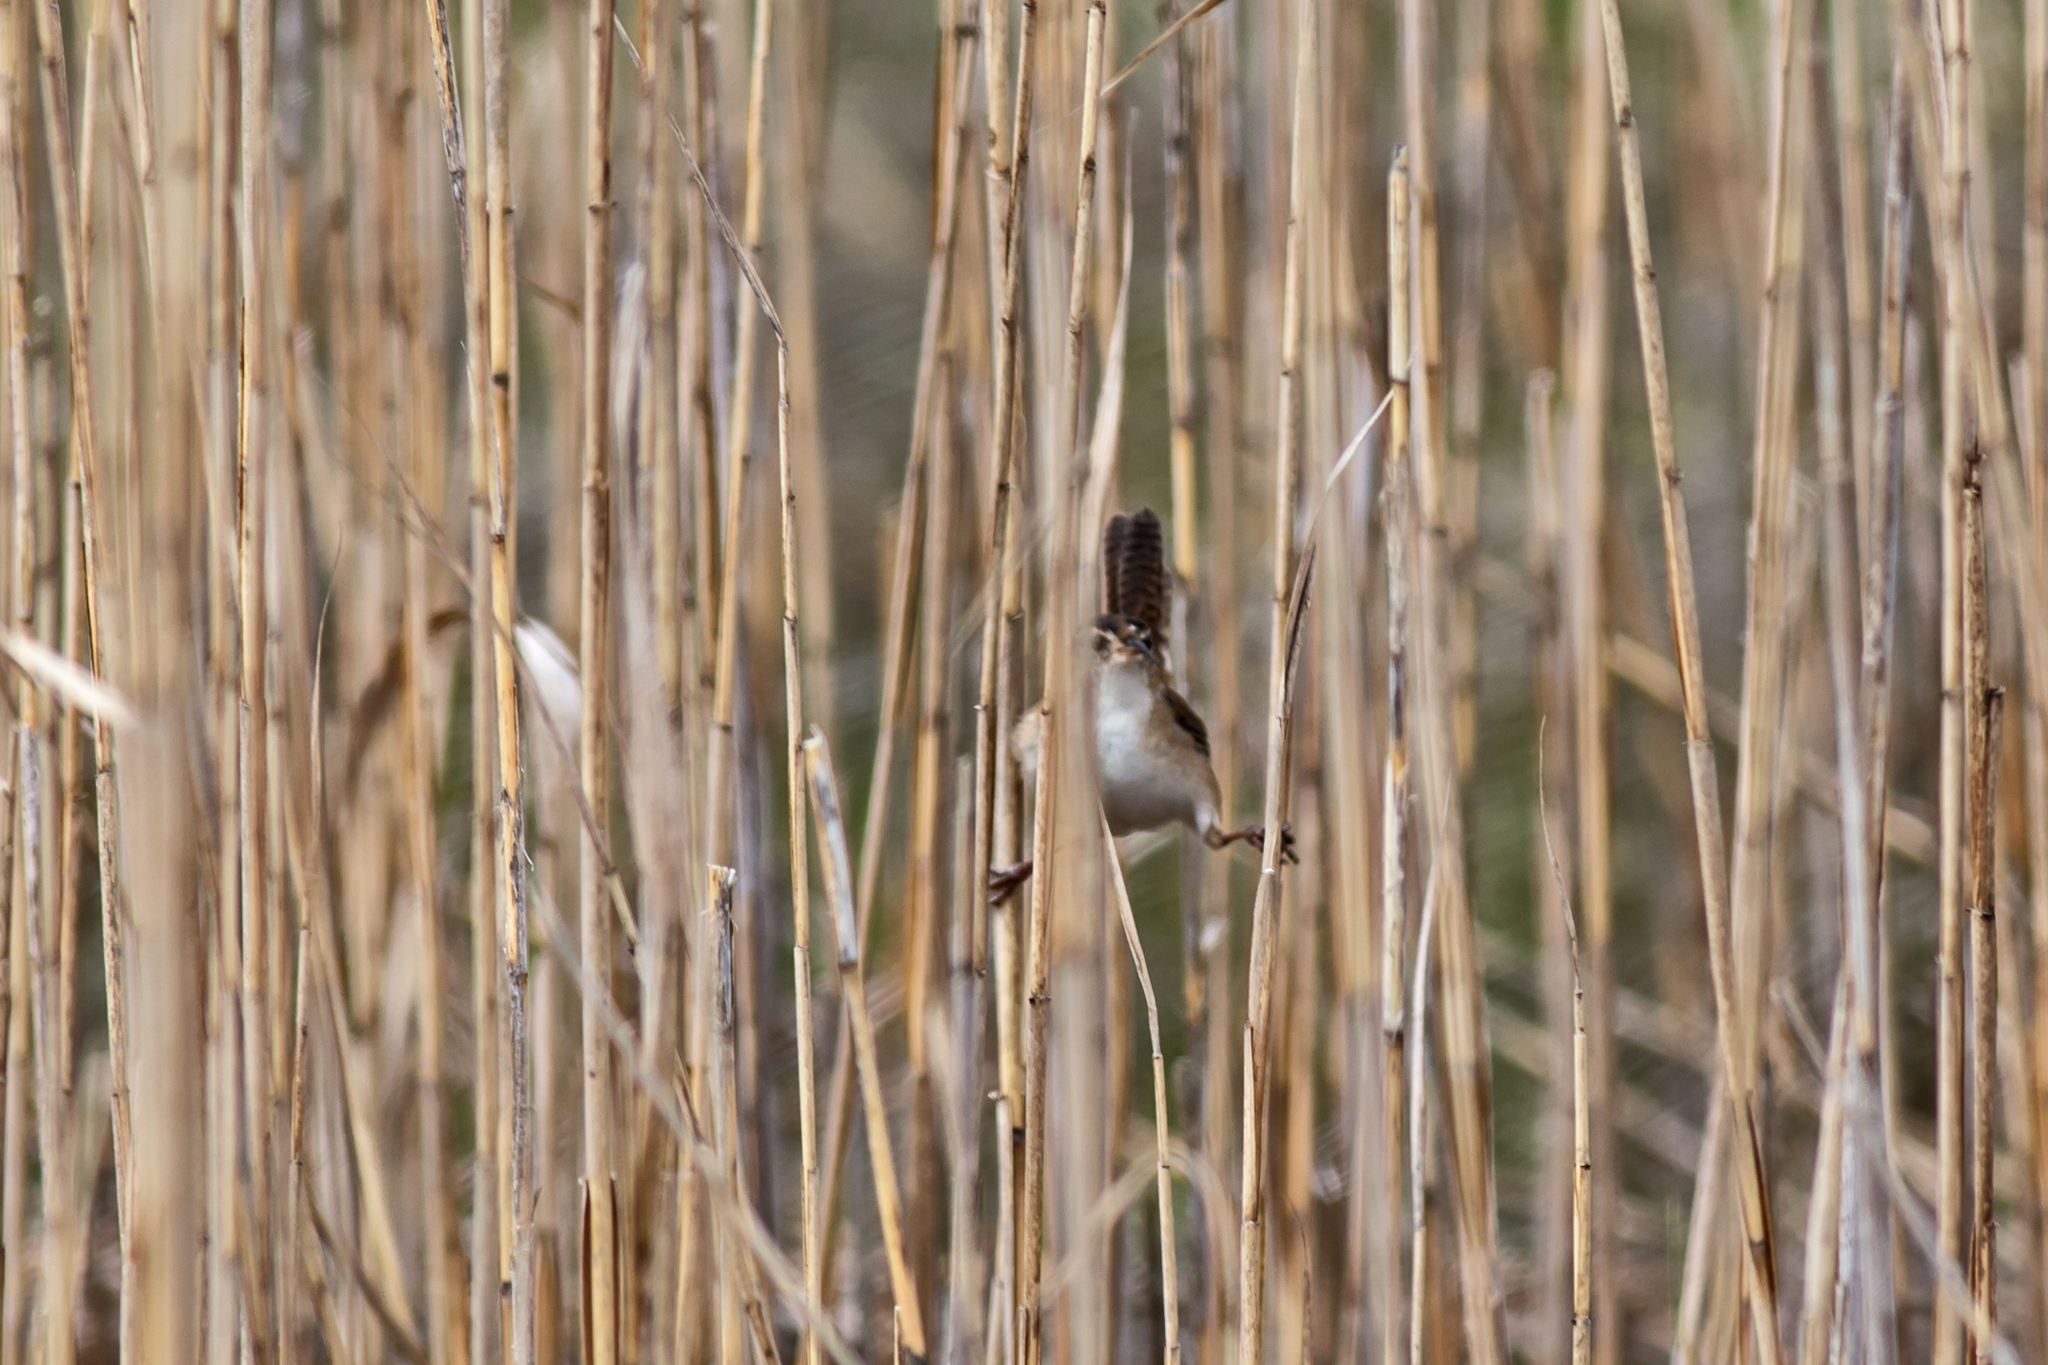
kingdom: Animalia
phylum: Chordata
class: Aves
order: Passeriformes
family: Troglodytidae
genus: Cistothorus
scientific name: Cistothorus palustris
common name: Marsh wren
